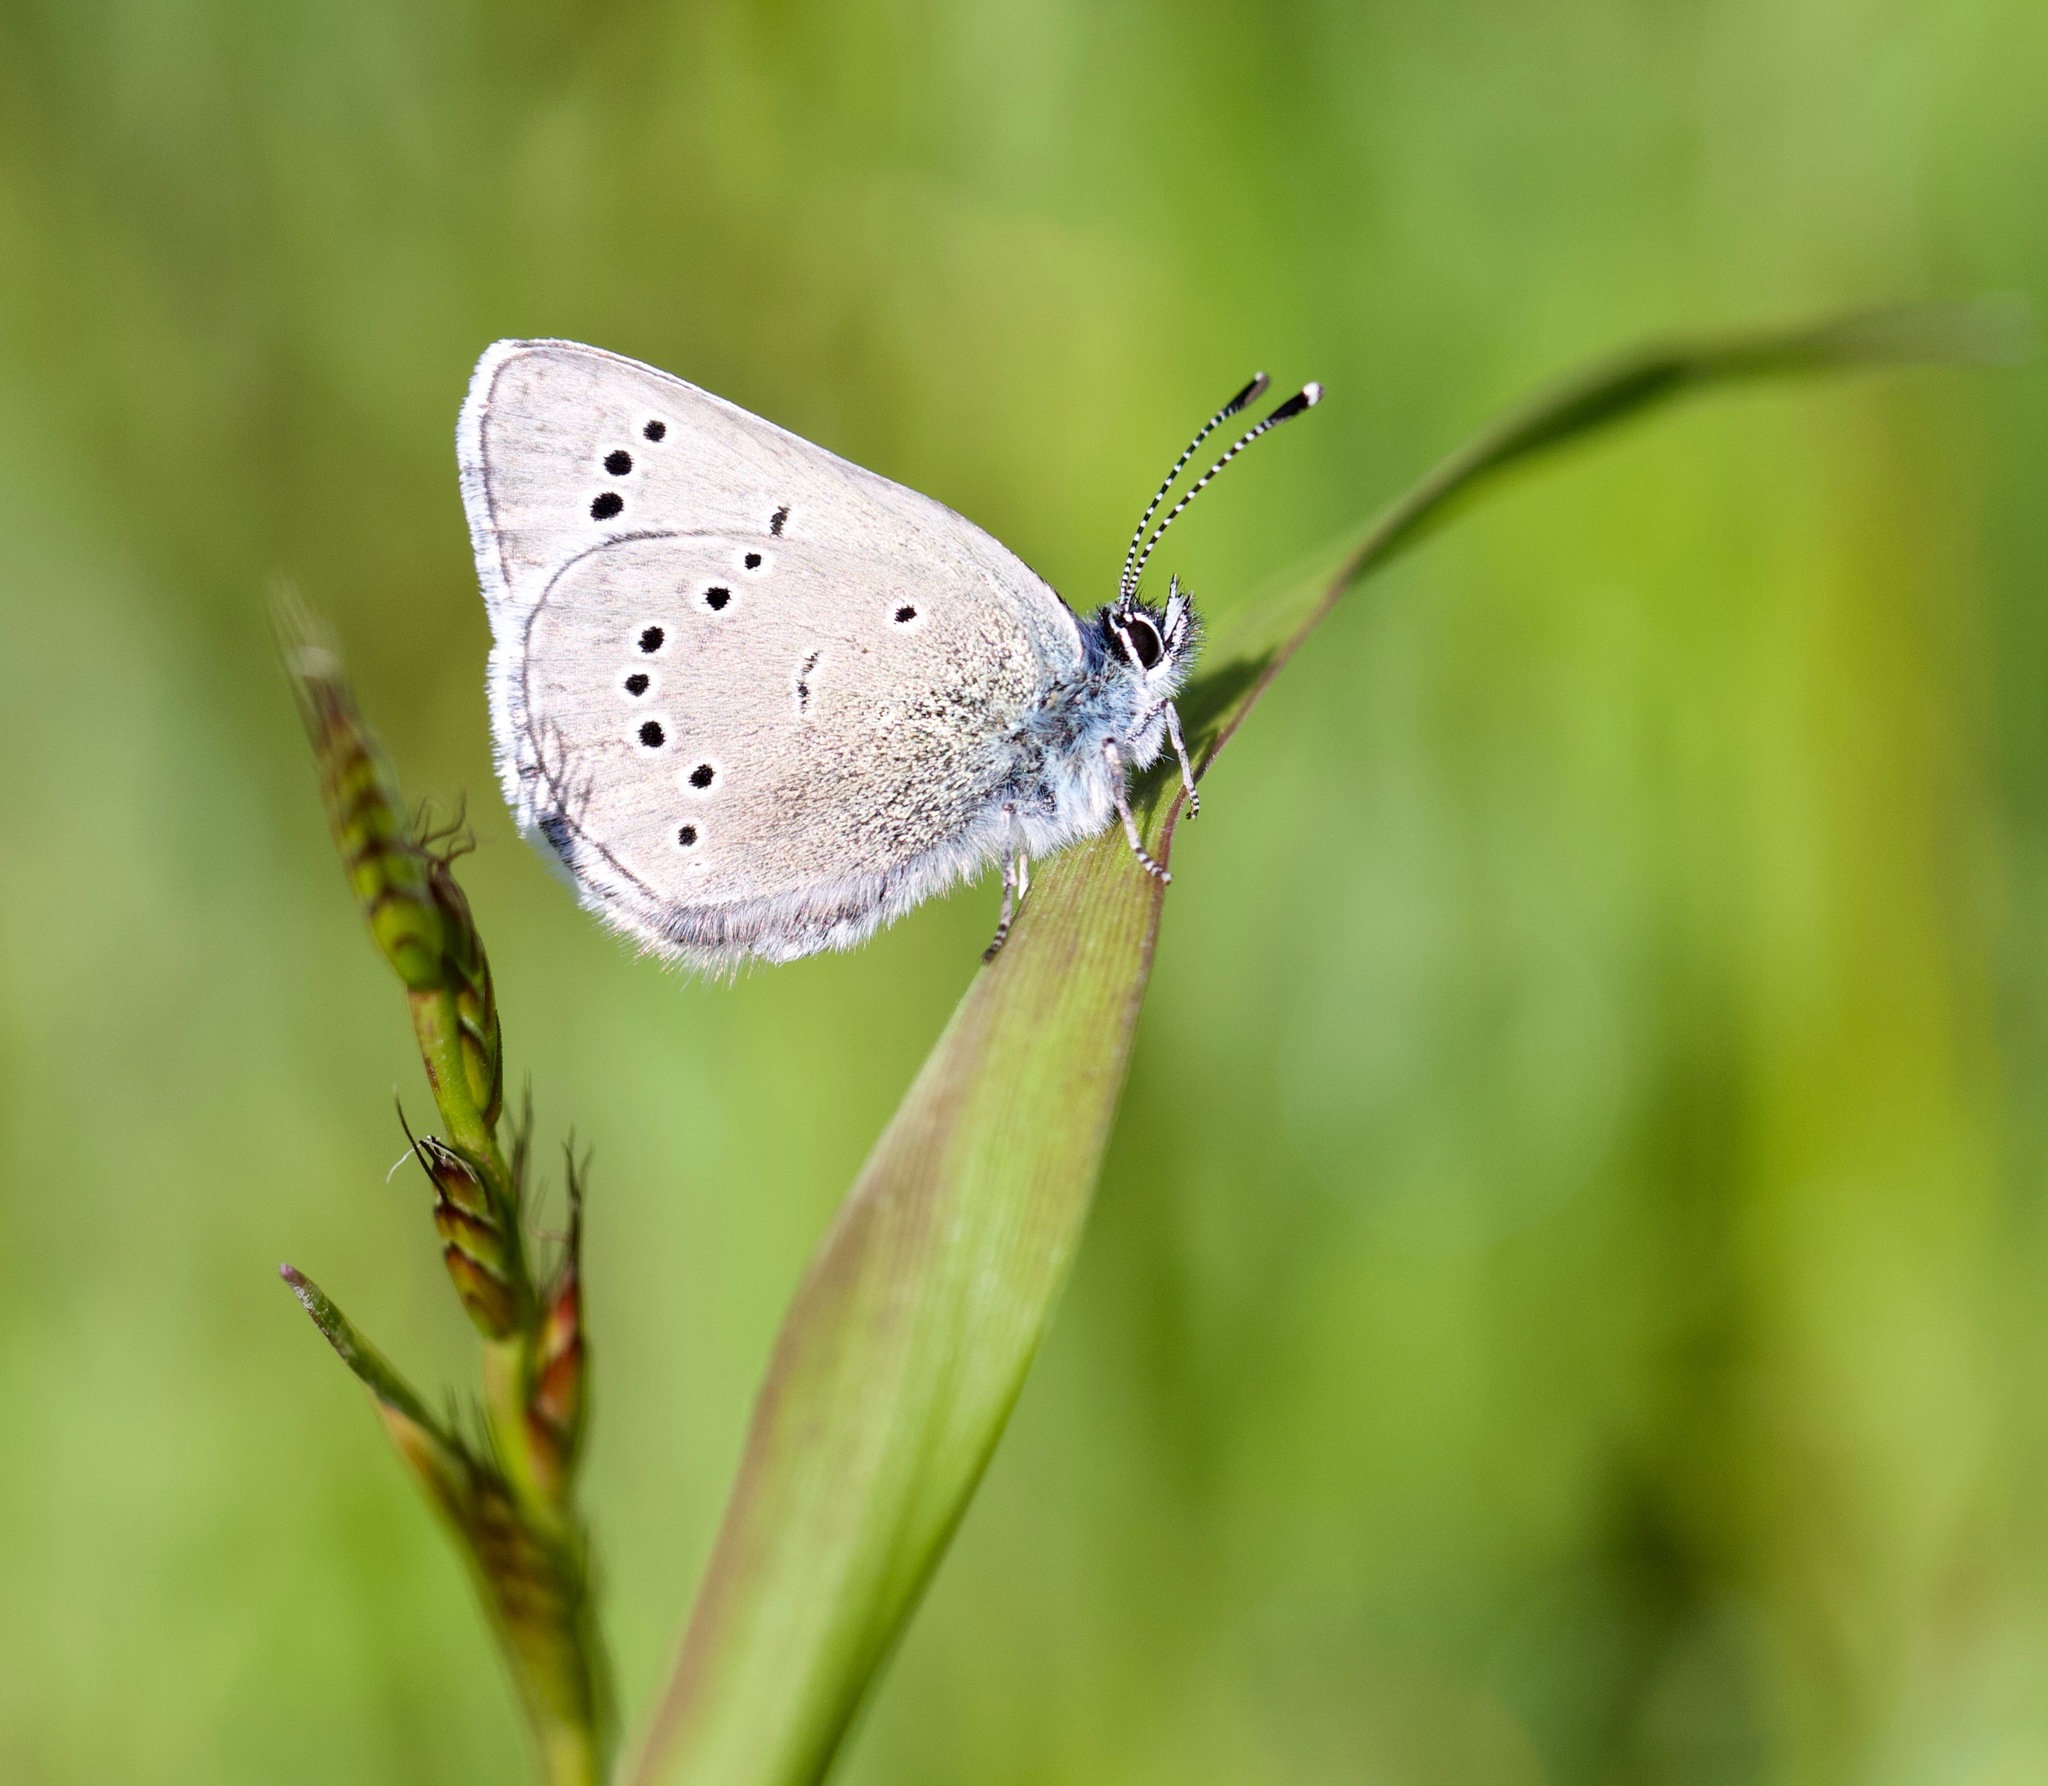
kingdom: Animalia
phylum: Arthropoda
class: Insecta
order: Lepidoptera
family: Lycaenidae
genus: Glaucopsyche
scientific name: Glaucopsyche lygdamus
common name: Silvery blue
